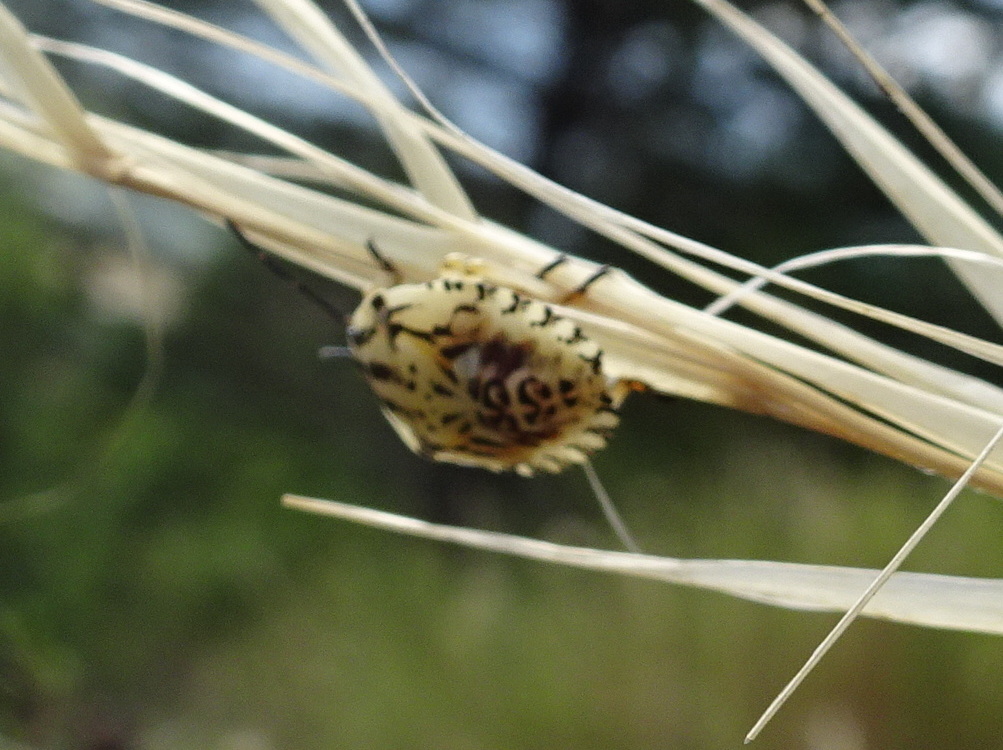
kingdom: Animalia
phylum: Arthropoda
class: Insecta
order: Hemiptera
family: Pentatomidae
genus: Carpocoris
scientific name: Carpocoris purpureipennis
